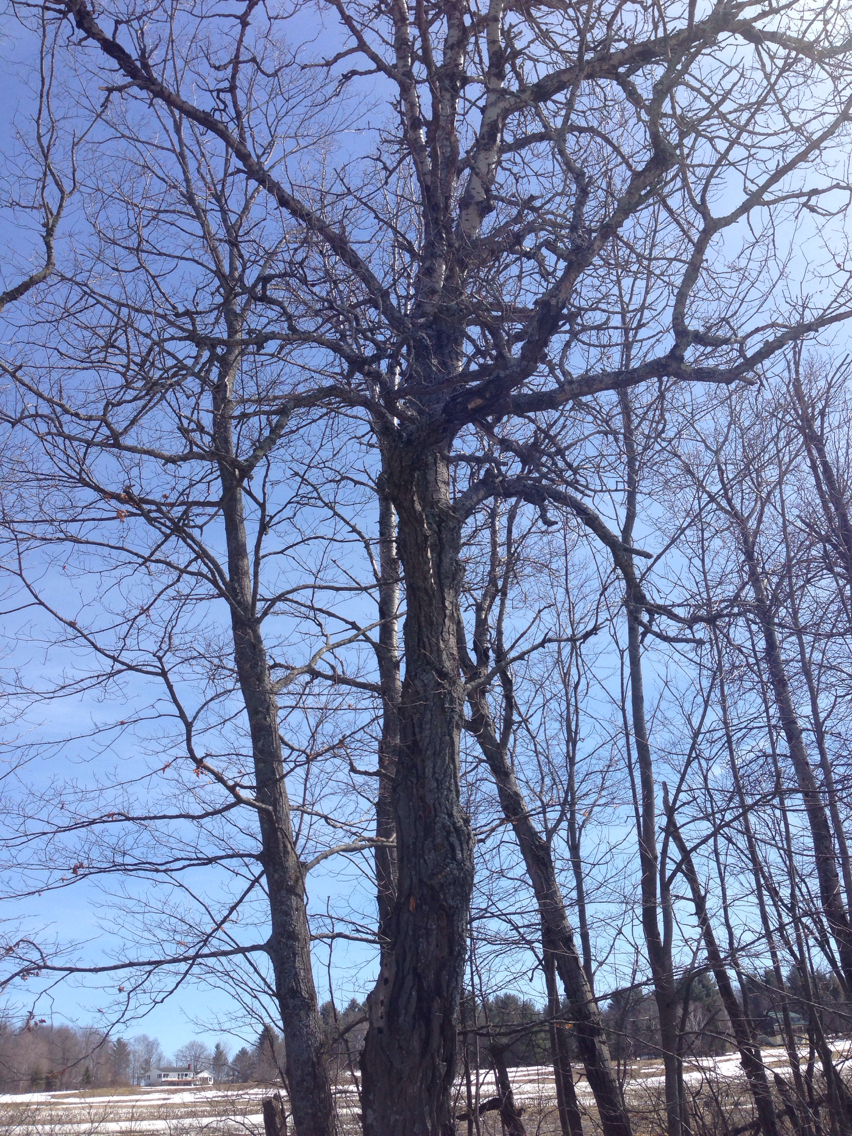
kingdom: Plantae
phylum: Tracheophyta
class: Magnoliopsida
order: Malpighiales
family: Salicaceae
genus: Populus
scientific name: Populus grandidentata
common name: Bigtooth aspen
